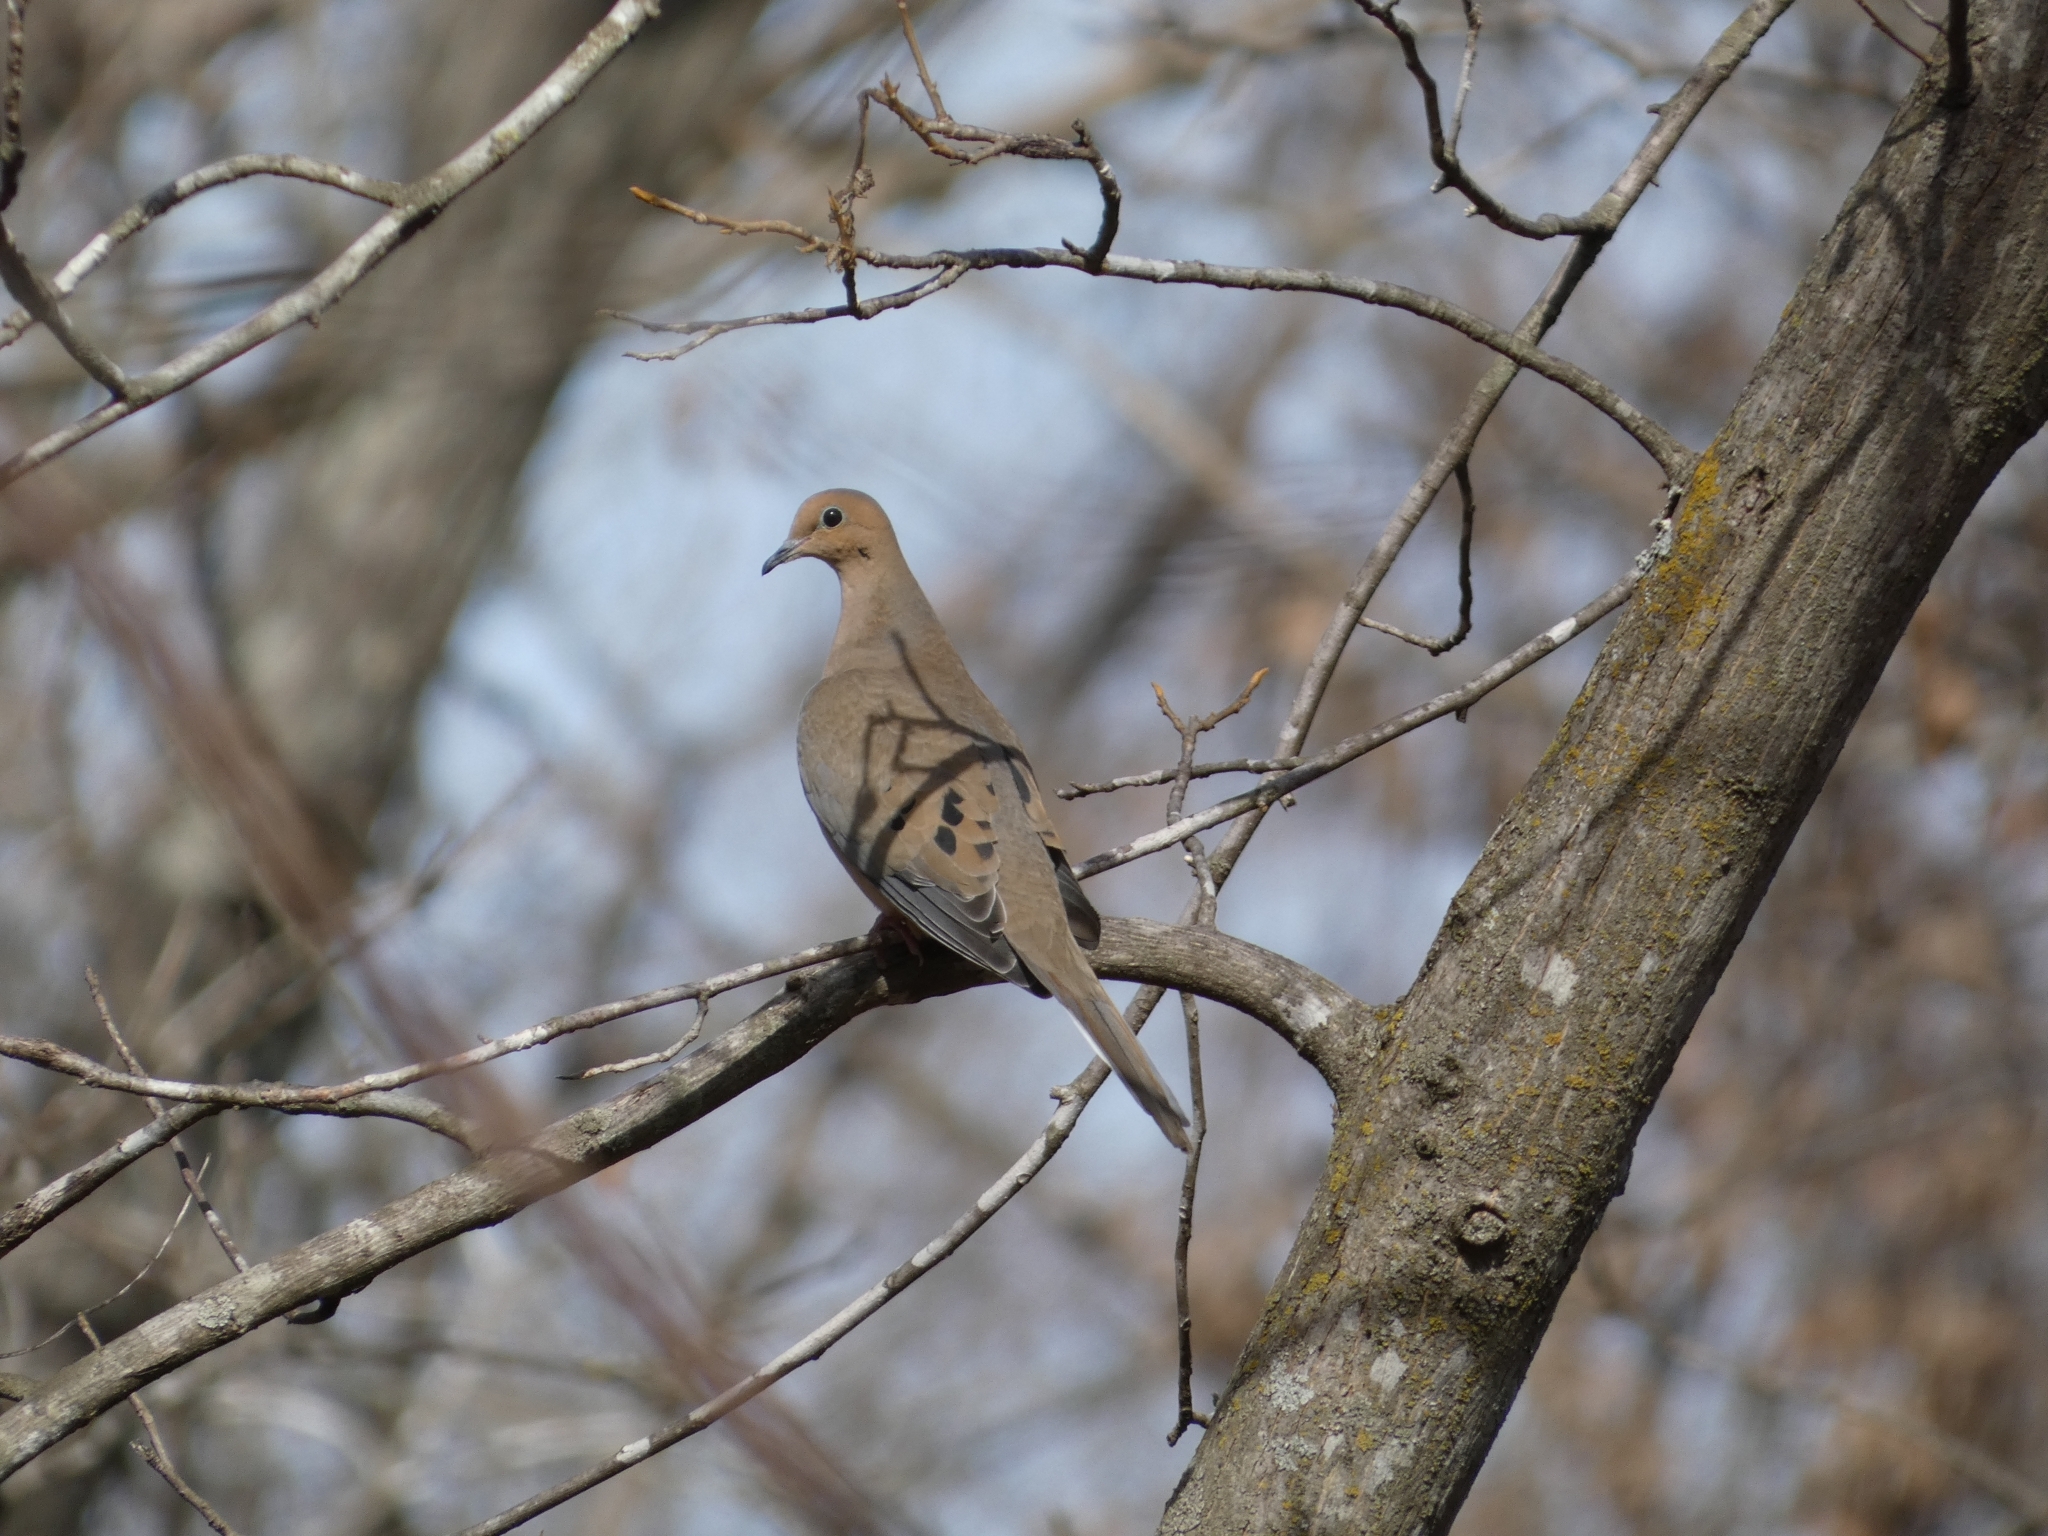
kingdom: Animalia
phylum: Chordata
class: Aves
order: Columbiformes
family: Columbidae
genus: Zenaida
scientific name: Zenaida macroura
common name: Mourning dove
